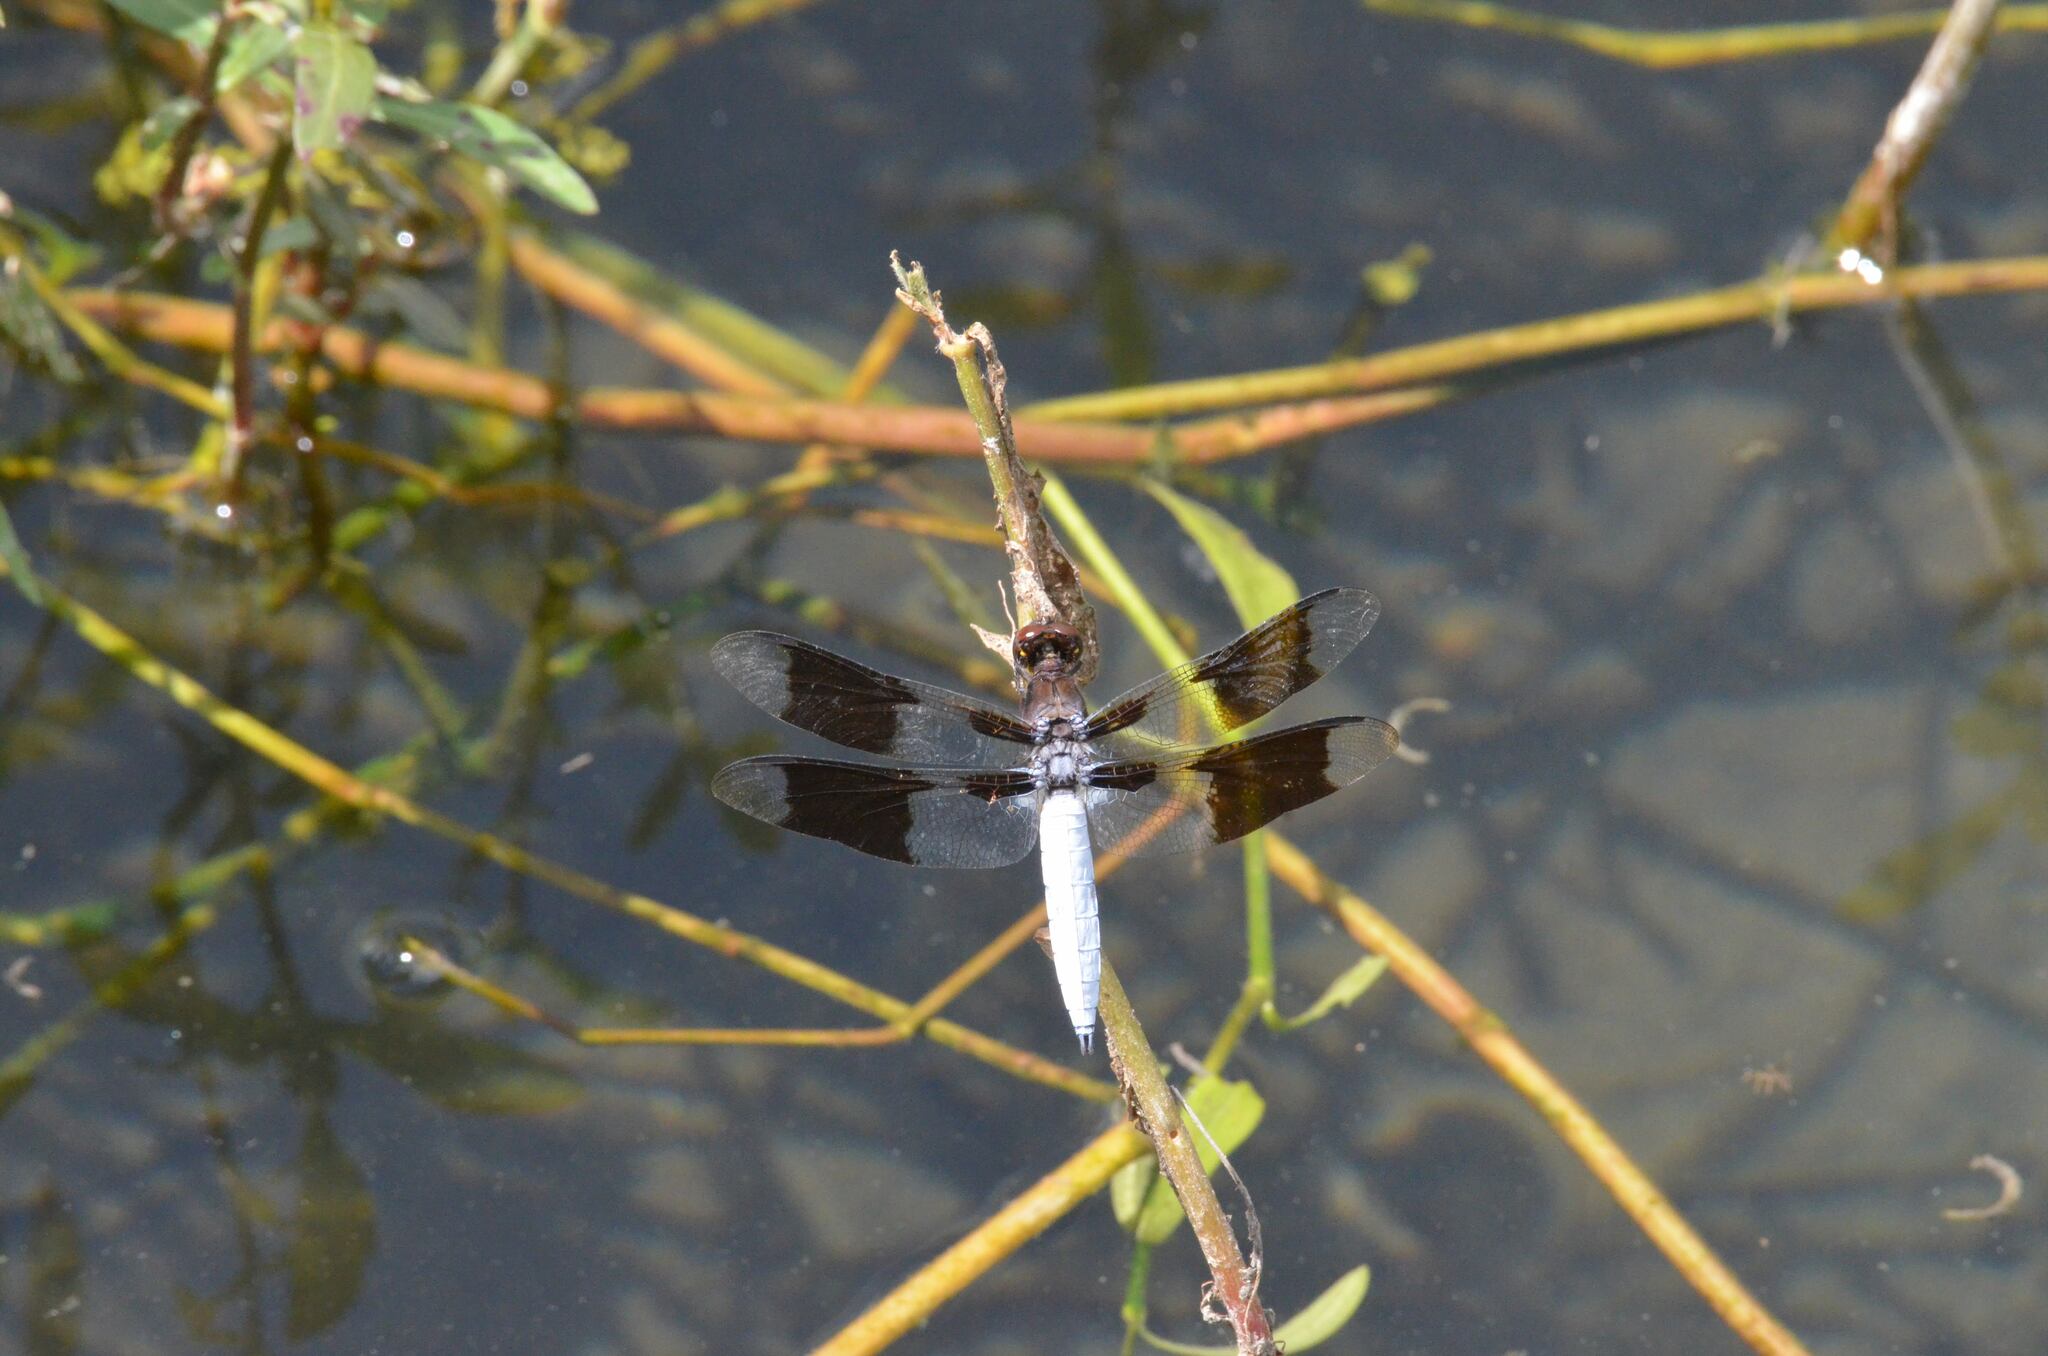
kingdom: Animalia
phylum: Arthropoda
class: Insecta
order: Odonata
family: Libellulidae
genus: Plathemis
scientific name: Plathemis lydia
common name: Common whitetail
